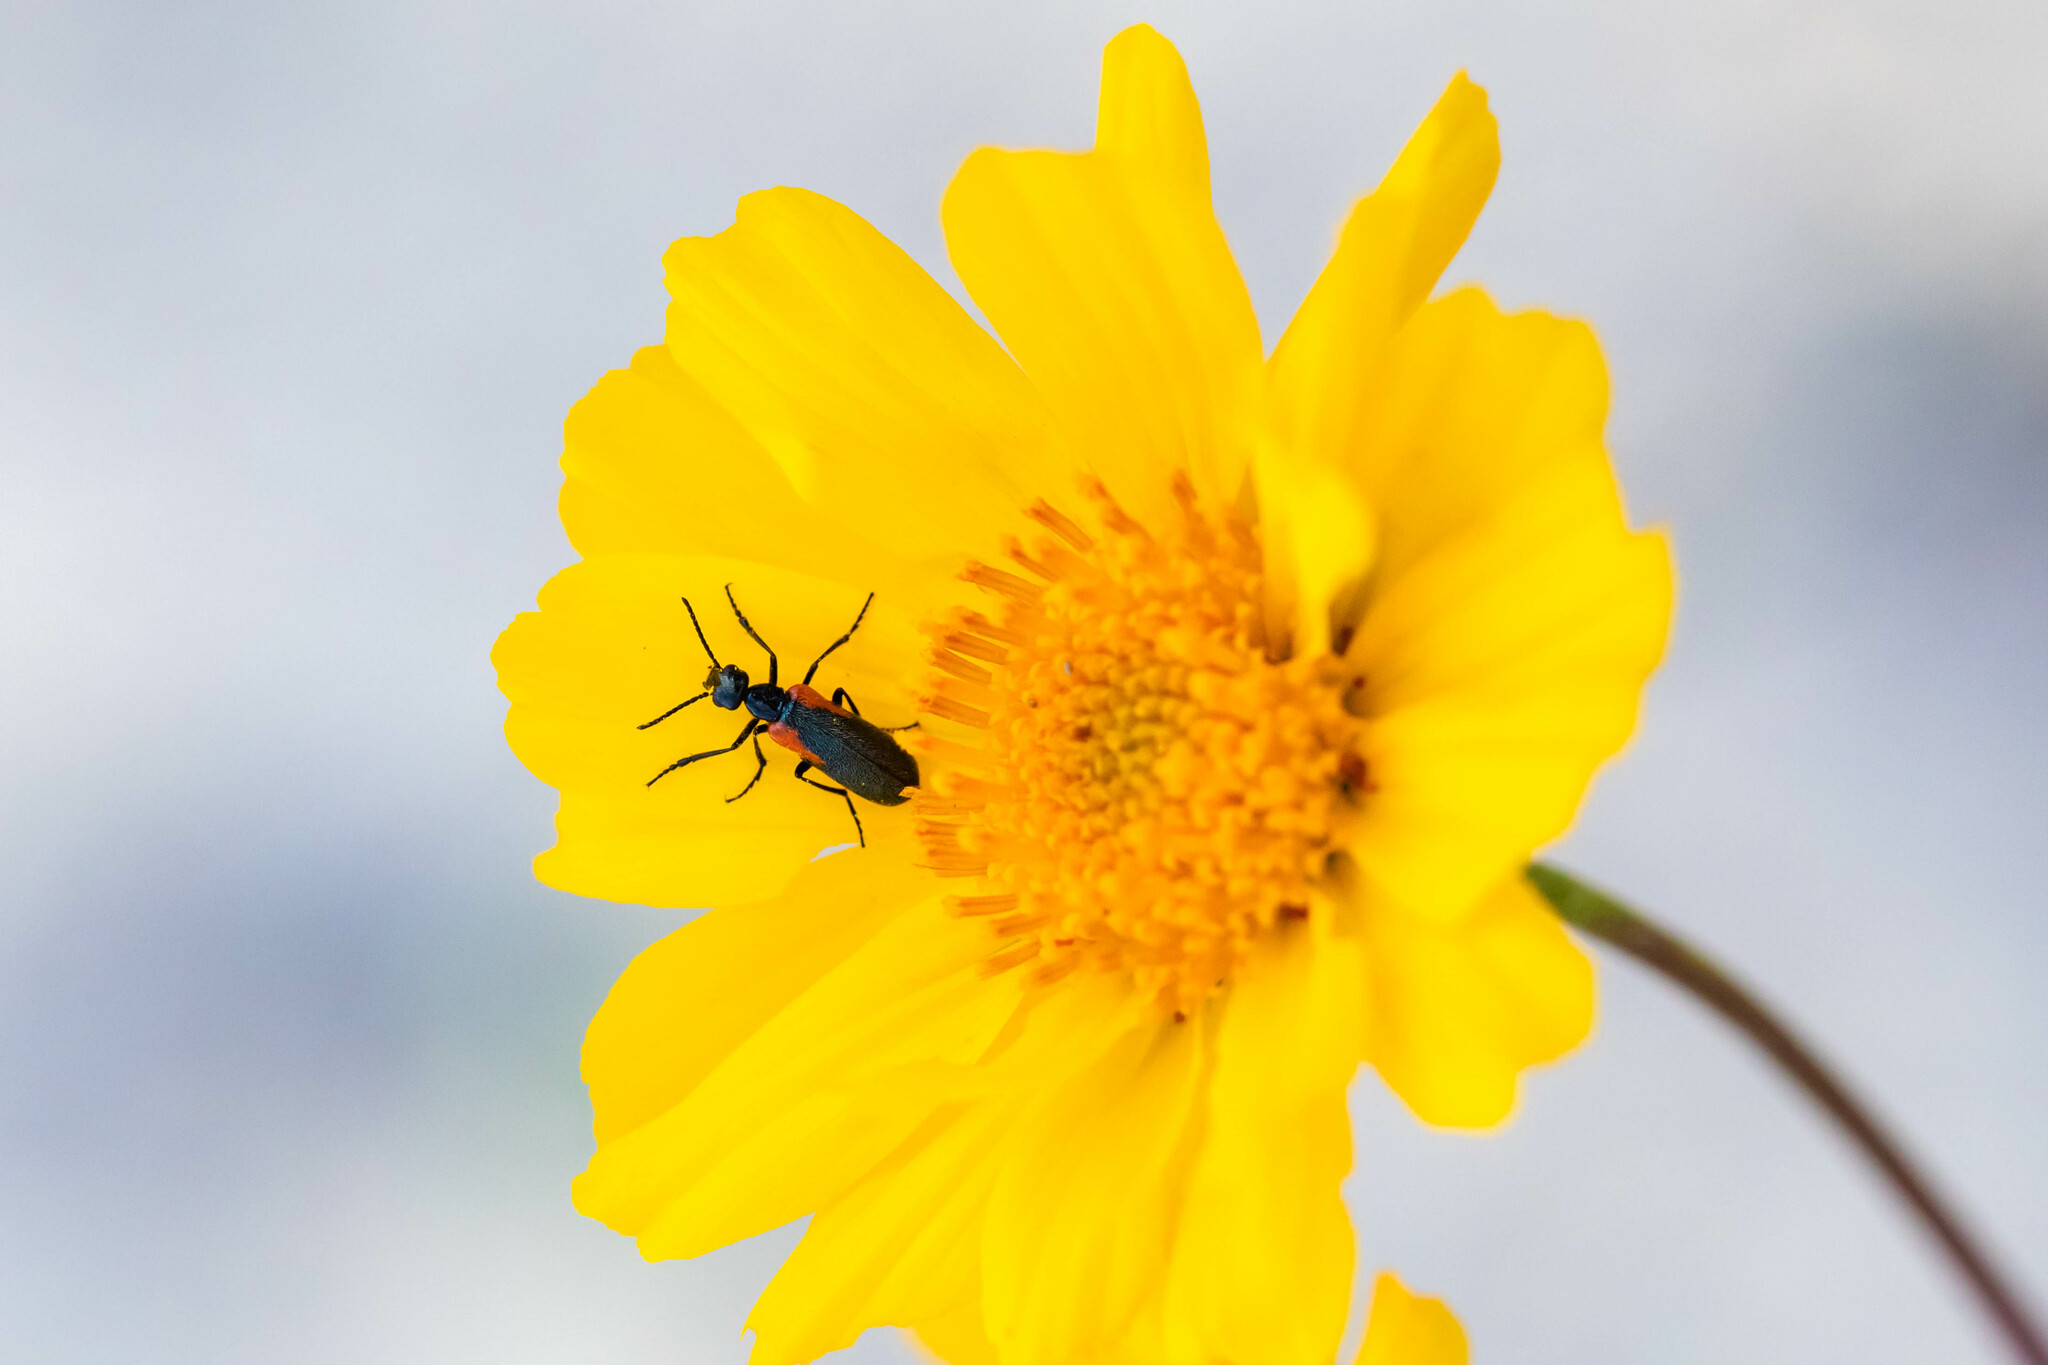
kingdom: Animalia
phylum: Arthropoda
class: Insecta
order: Coleoptera
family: Meloidae
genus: Eupompha
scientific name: Eupompha elegans
